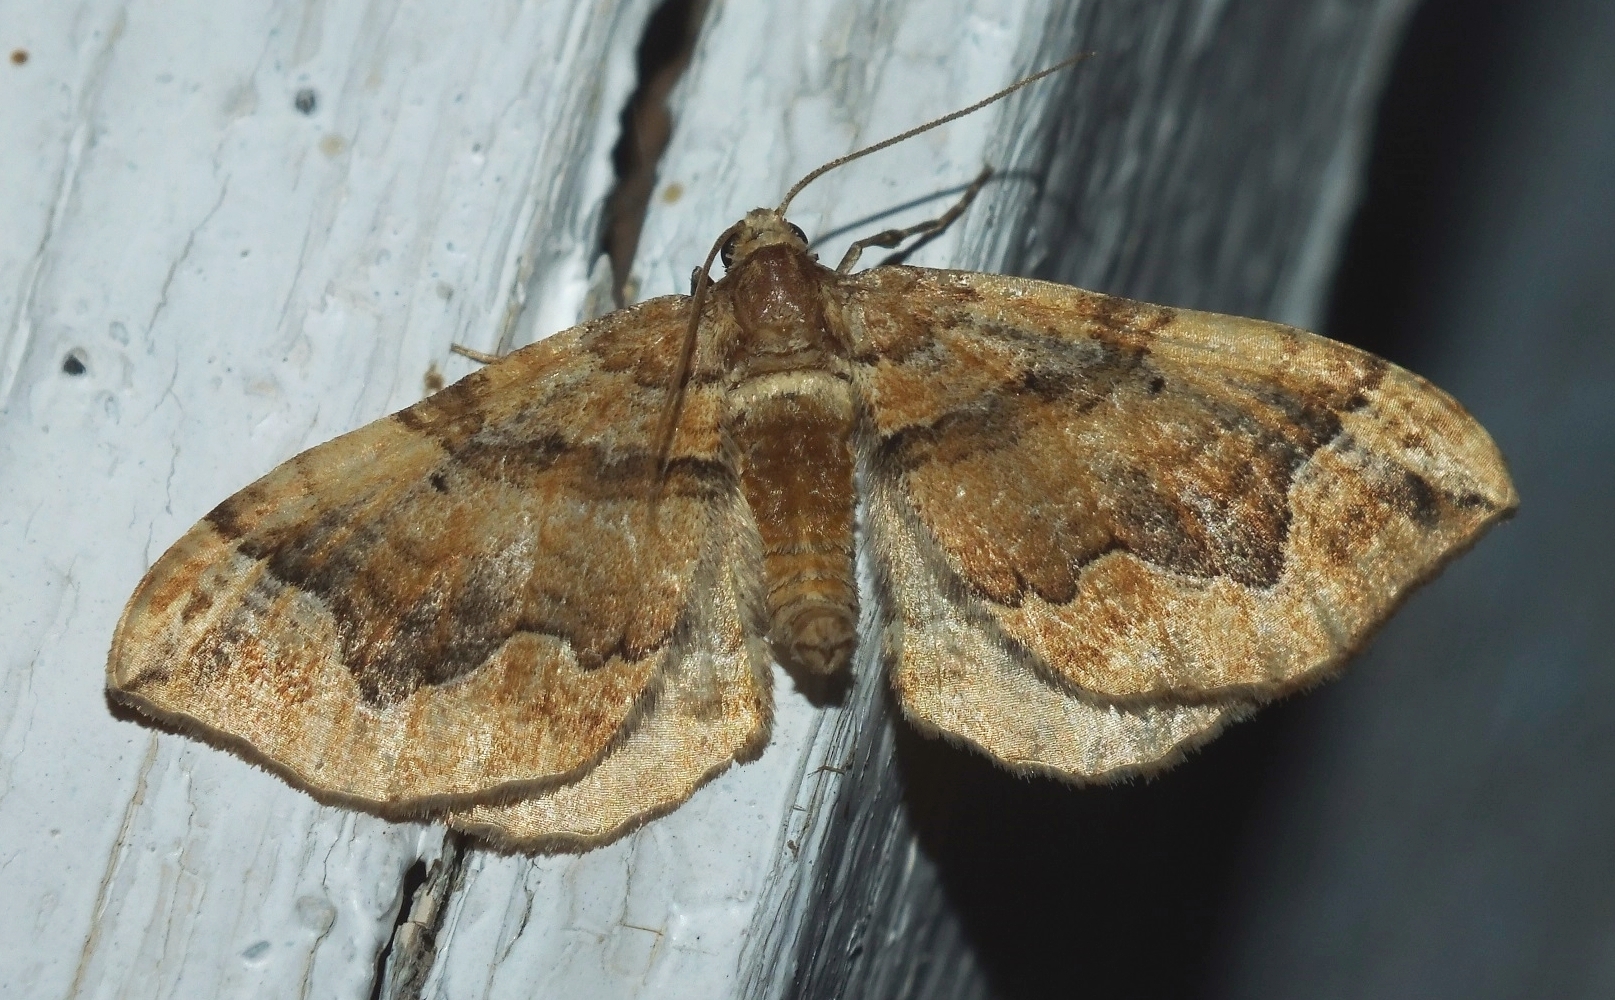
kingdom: Animalia
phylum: Arthropoda
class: Insecta
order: Lepidoptera
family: Geometridae
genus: Pelurga
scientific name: Pelurga comitata
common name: Dark spinach
